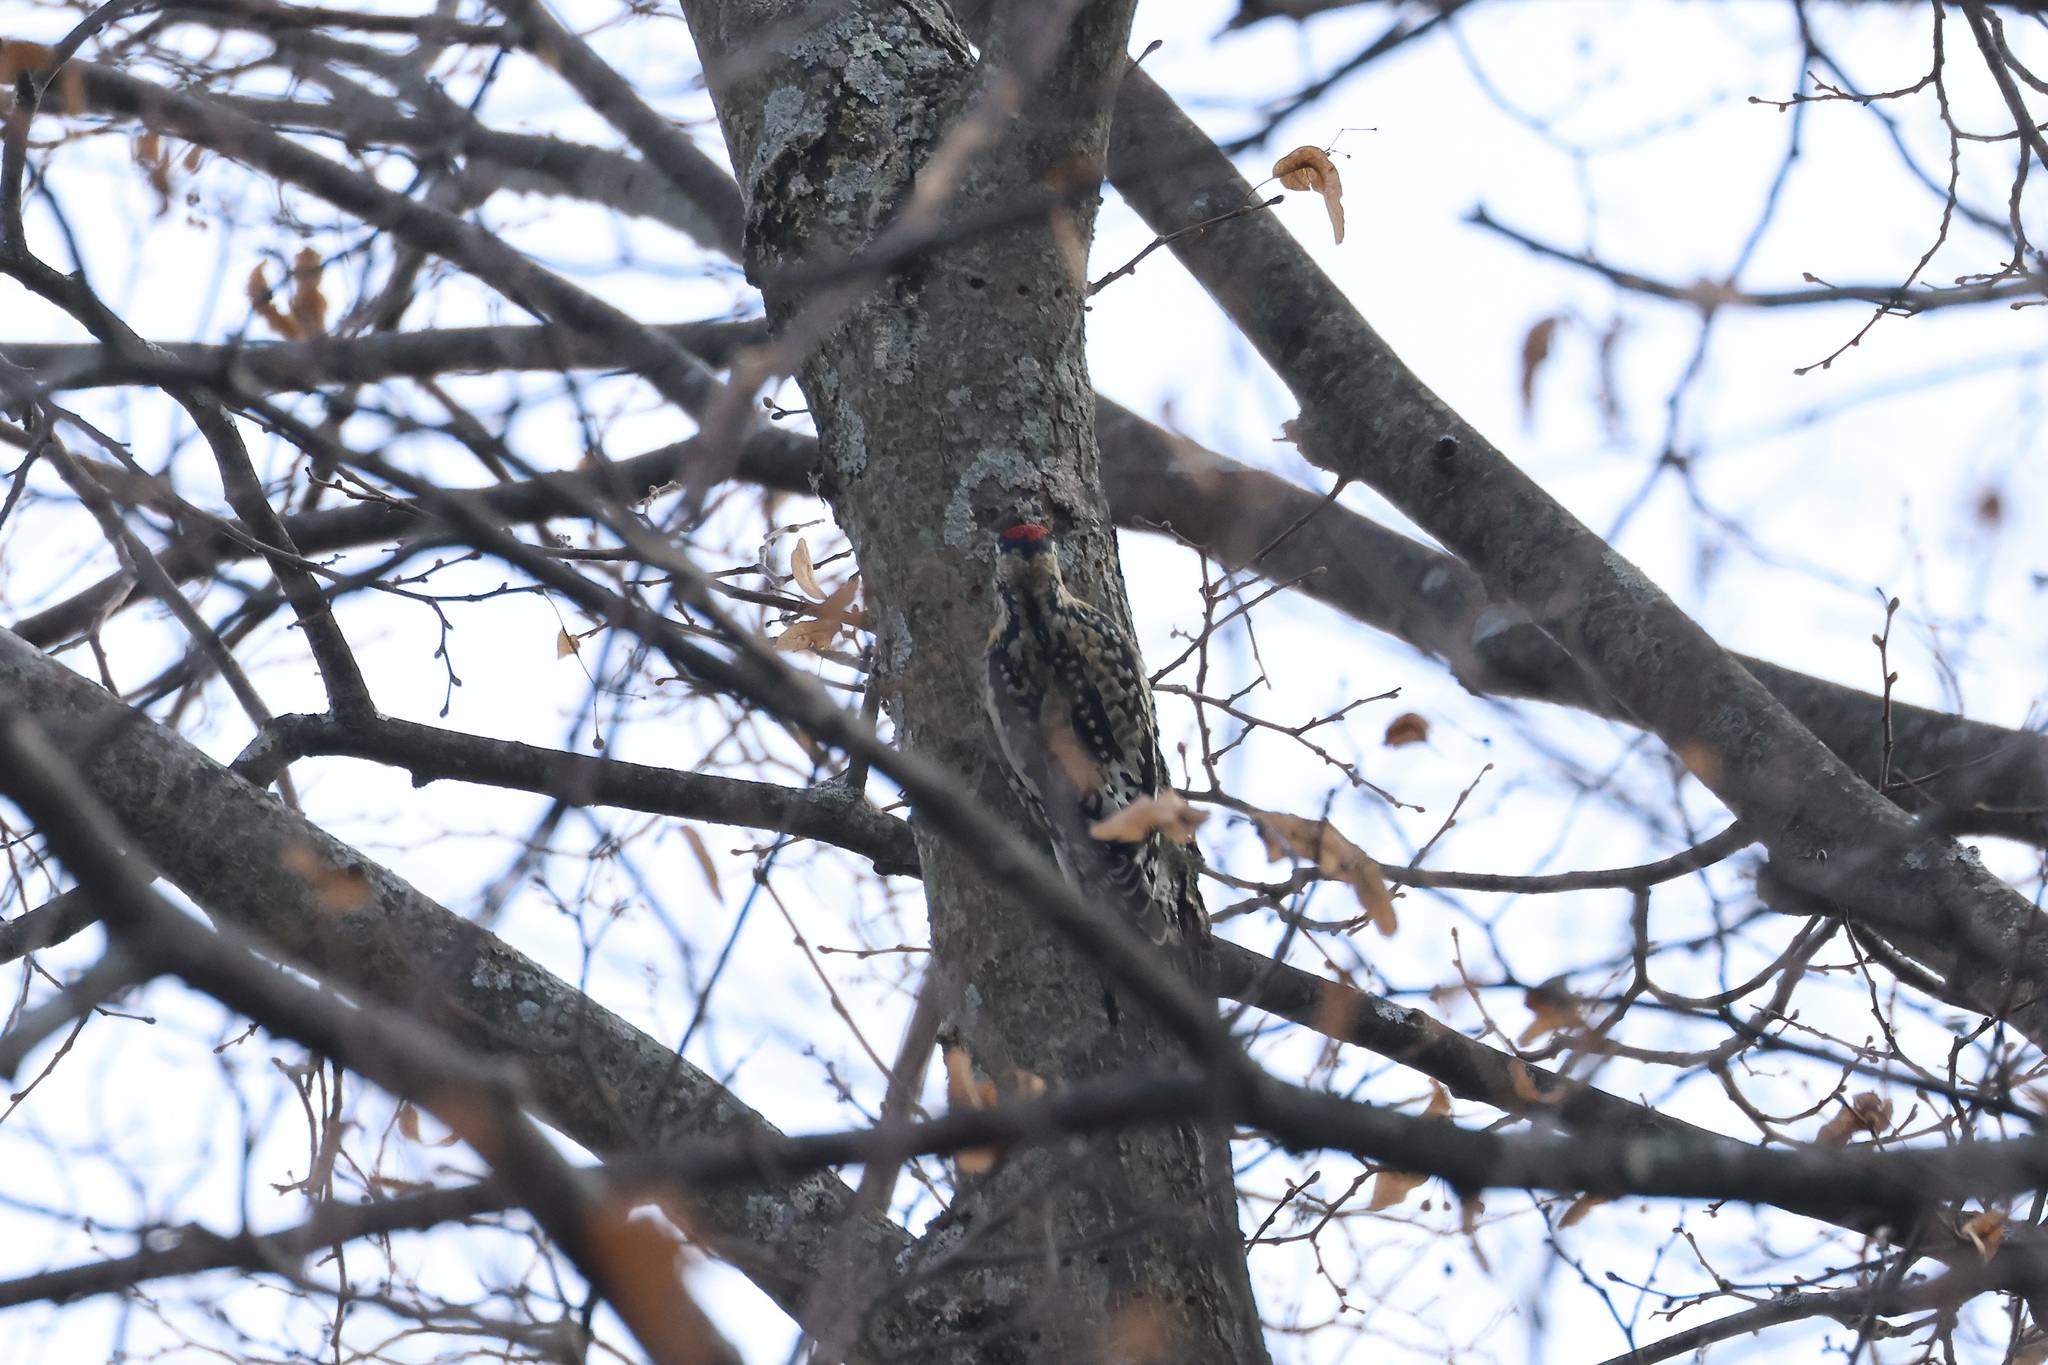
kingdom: Animalia
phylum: Chordata
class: Aves
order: Piciformes
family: Picidae
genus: Sphyrapicus
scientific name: Sphyrapicus varius
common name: Yellow-bellied sapsucker
